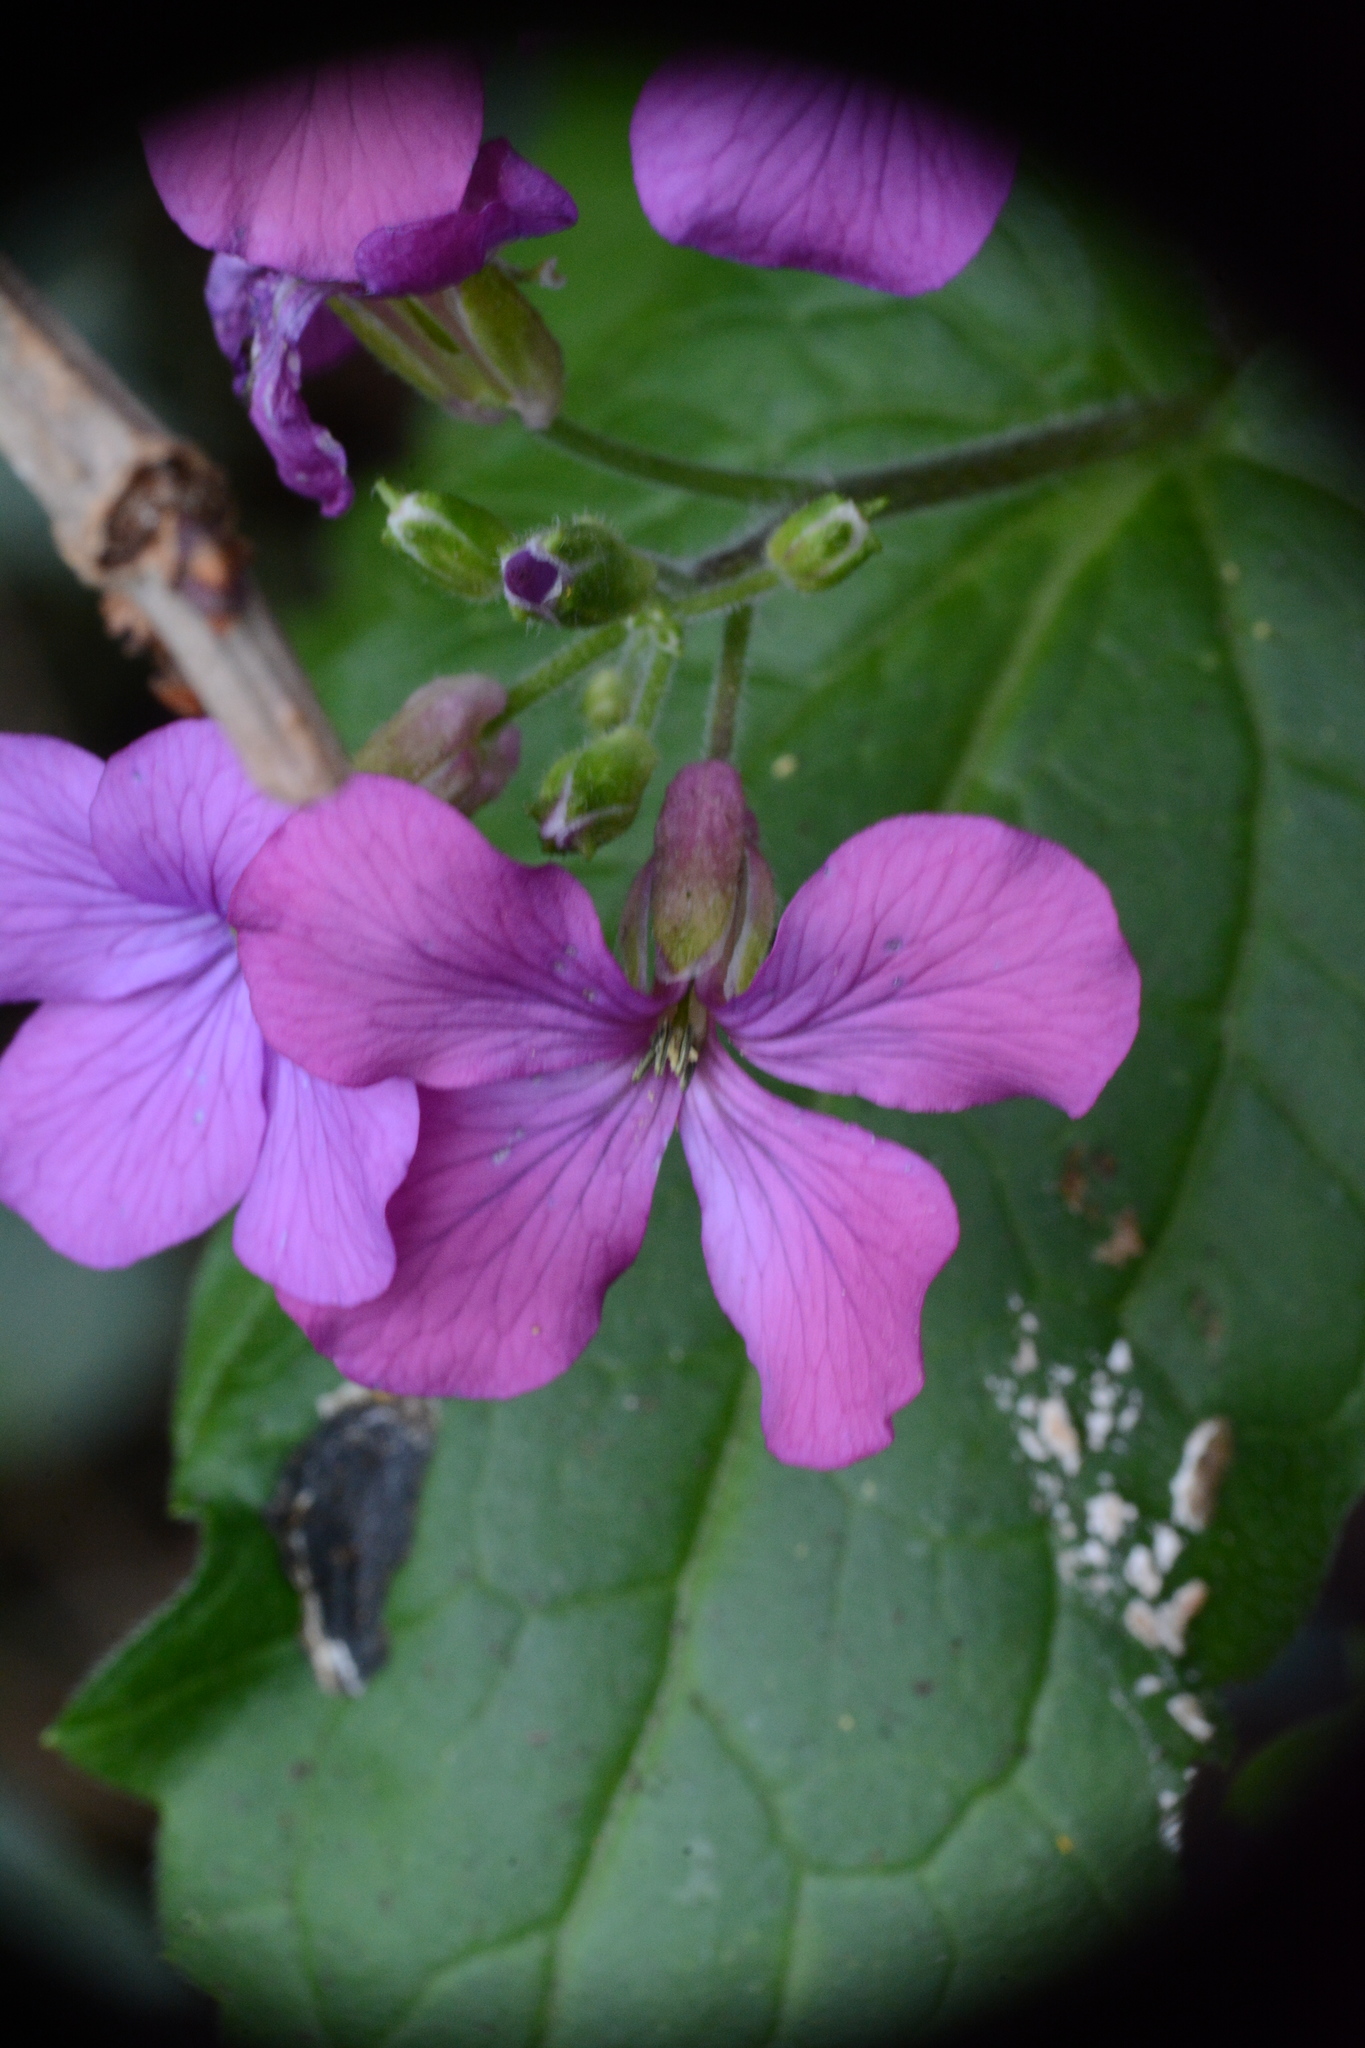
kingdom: Plantae
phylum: Tracheophyta
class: Magnoliopsida
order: Brassicales
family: Brassicaceae
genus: Lunaria
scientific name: Lunaria annua
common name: Honesty
